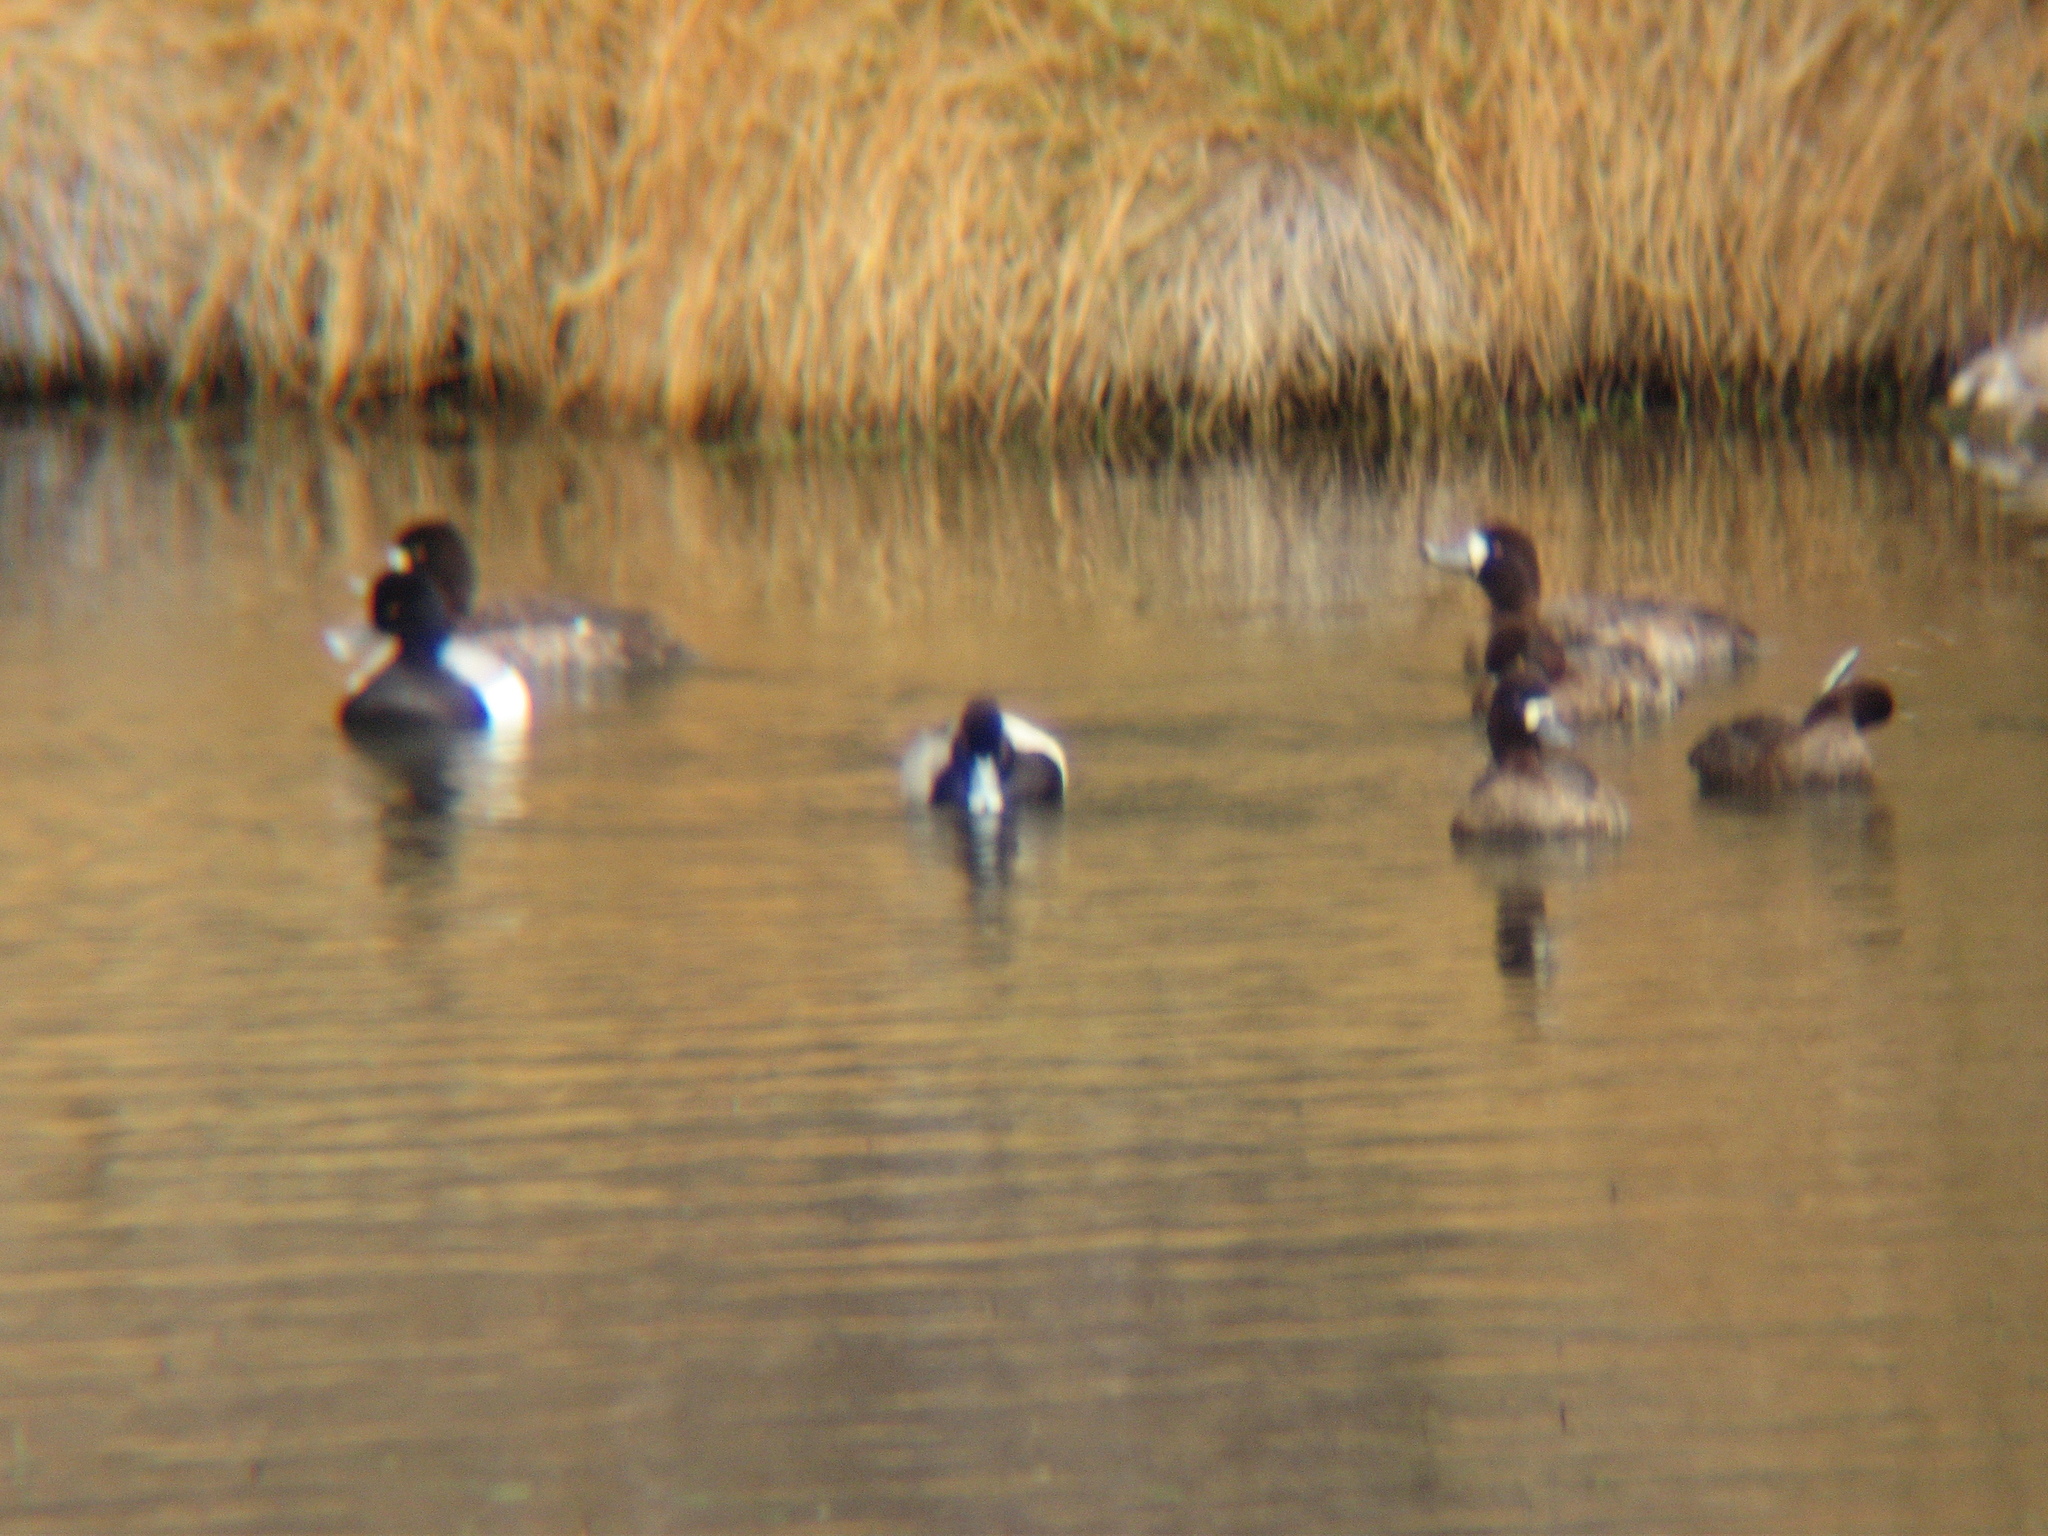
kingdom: Animalia
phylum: Chordata
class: Aves
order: Anseriformes
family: Anatidae
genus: Aythya
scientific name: Aythya affinis
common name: Lesser scaup
